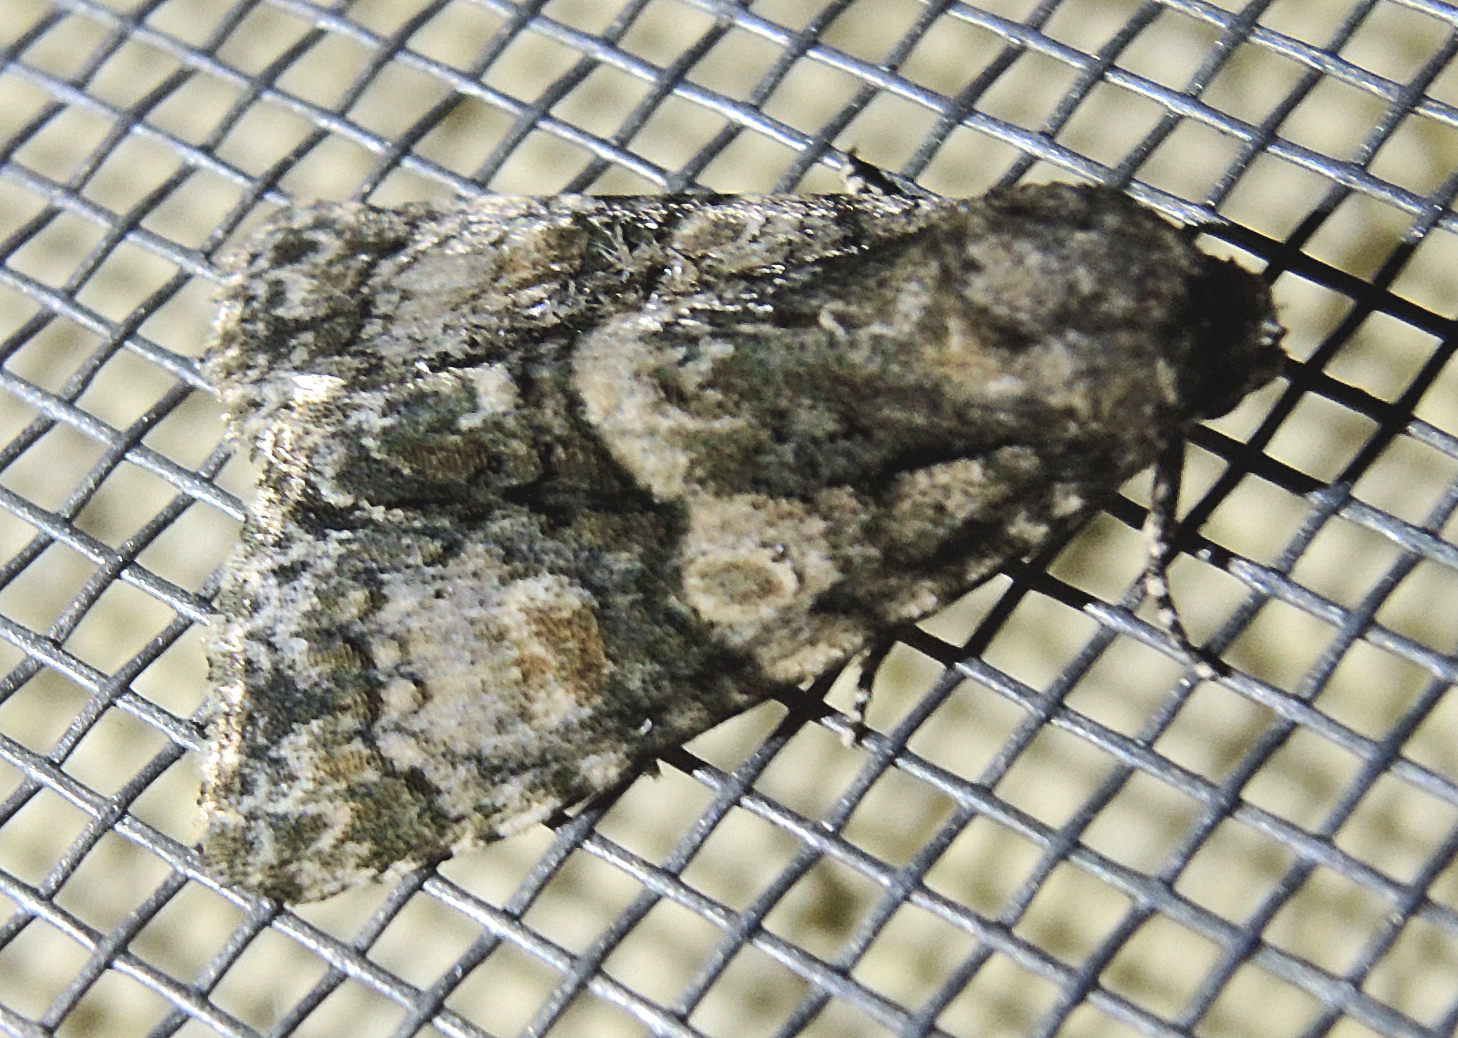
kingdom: Animalia
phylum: Arthropoda
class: Insecta
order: Lepidoptera
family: Noctuidae
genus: Craniophora
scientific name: Craniophora pontica
